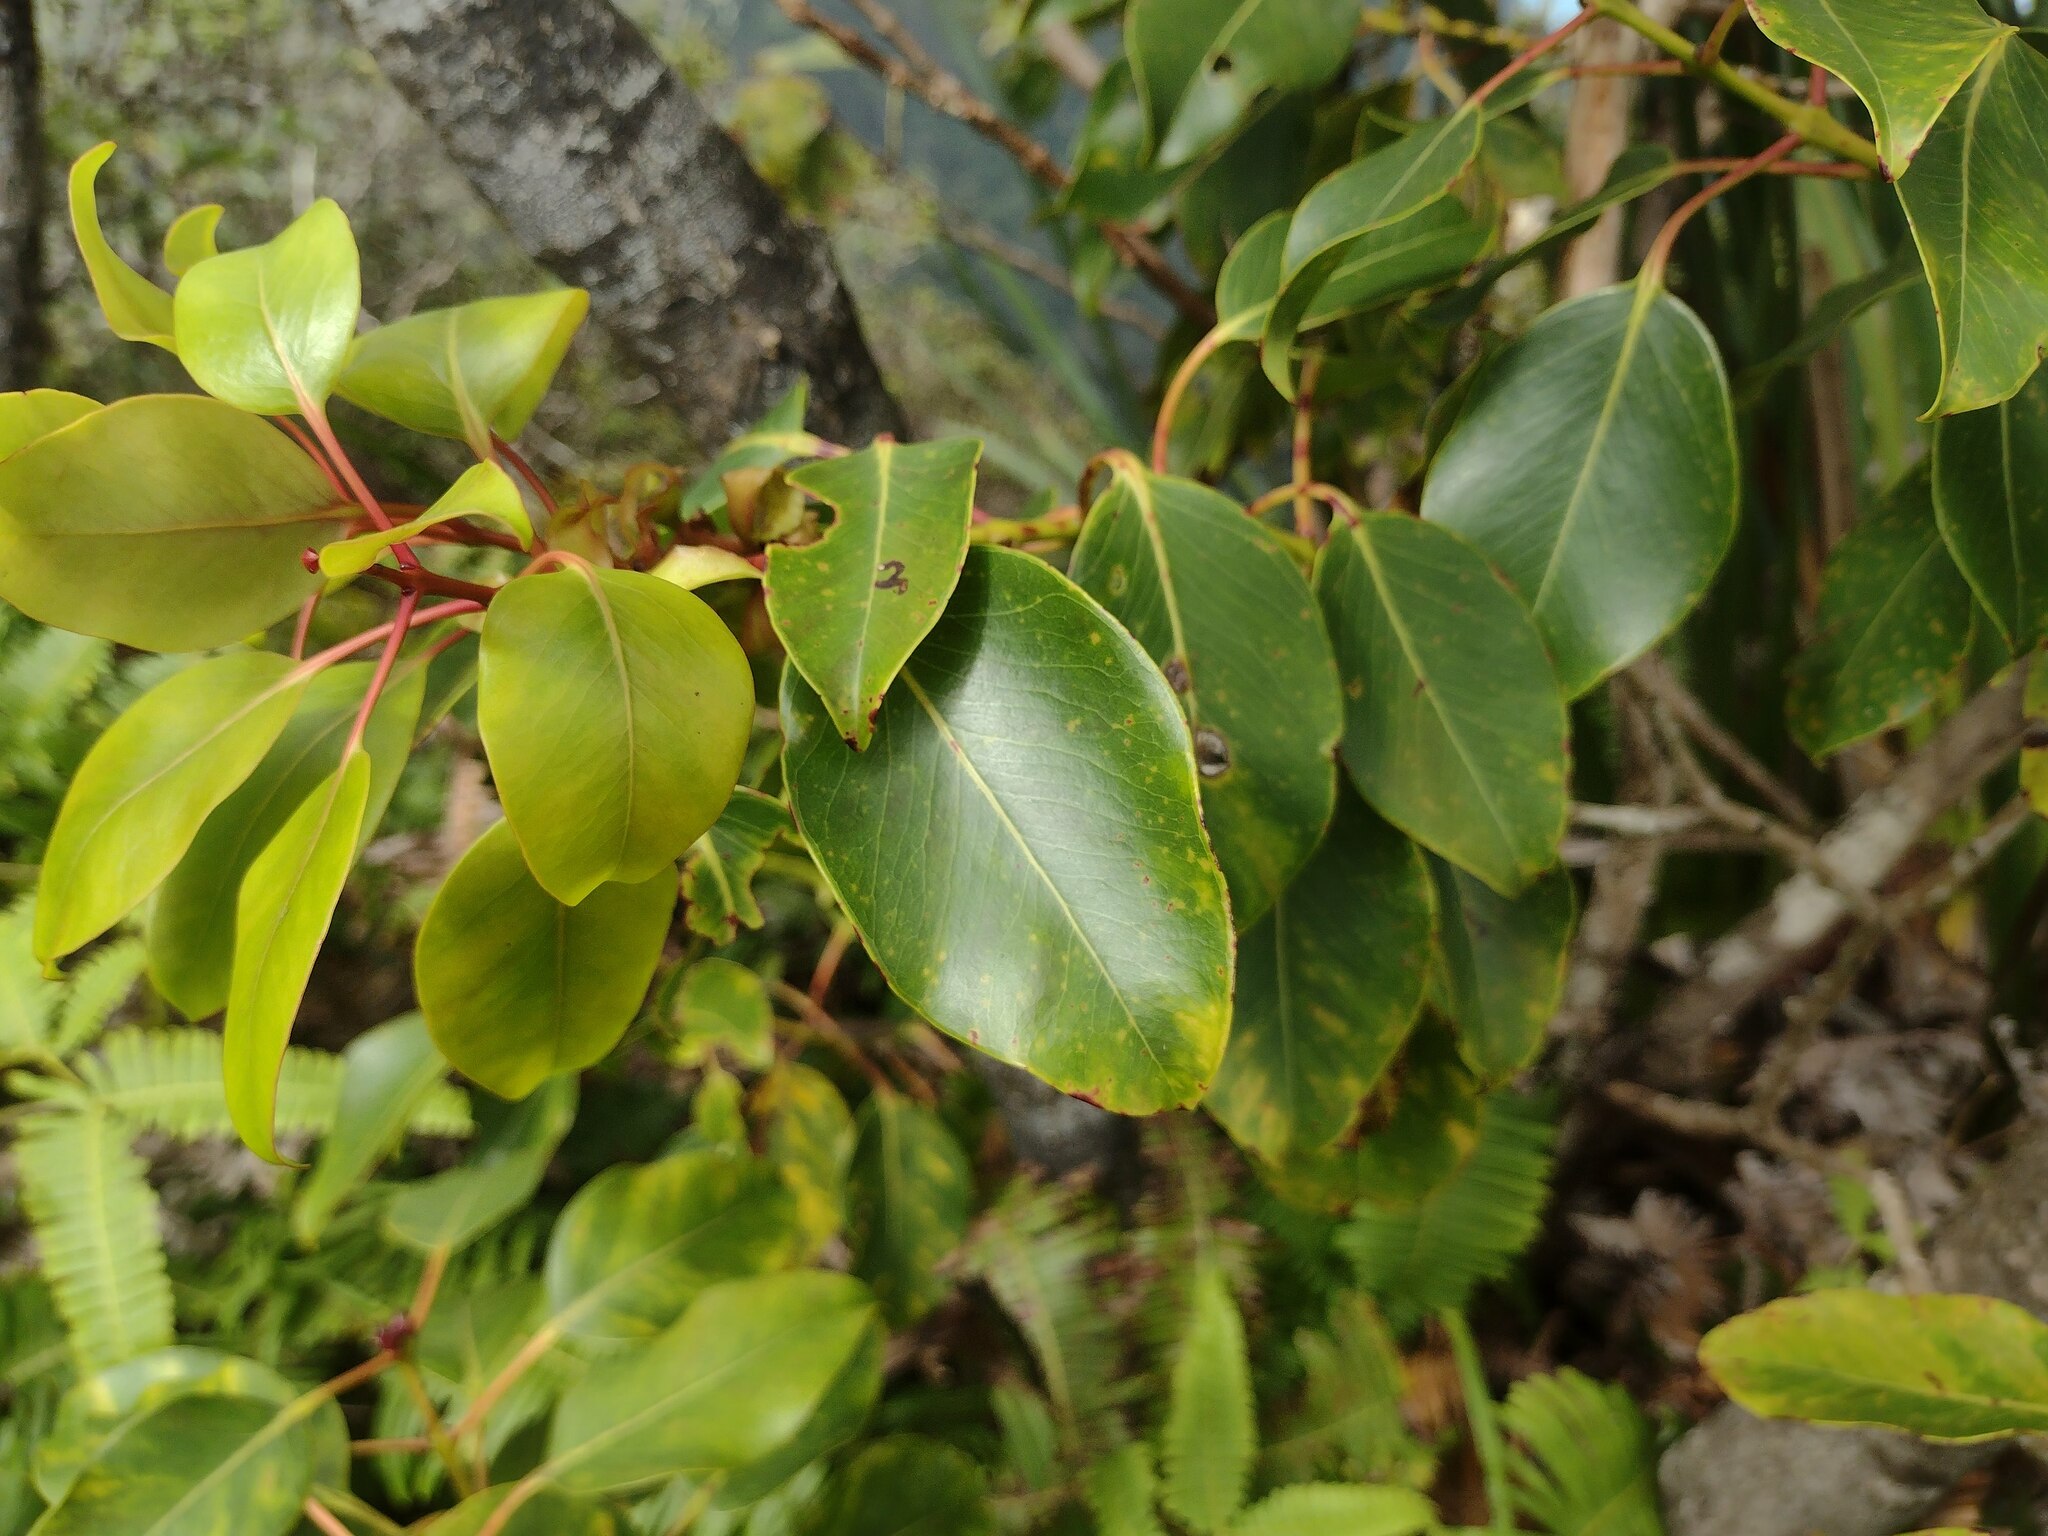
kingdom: Plantae
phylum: Tracheophyta
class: Magnoliopsida
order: Myrtales
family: Myrtaceae
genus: Metrosideros
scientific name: Metrosideros macropus
